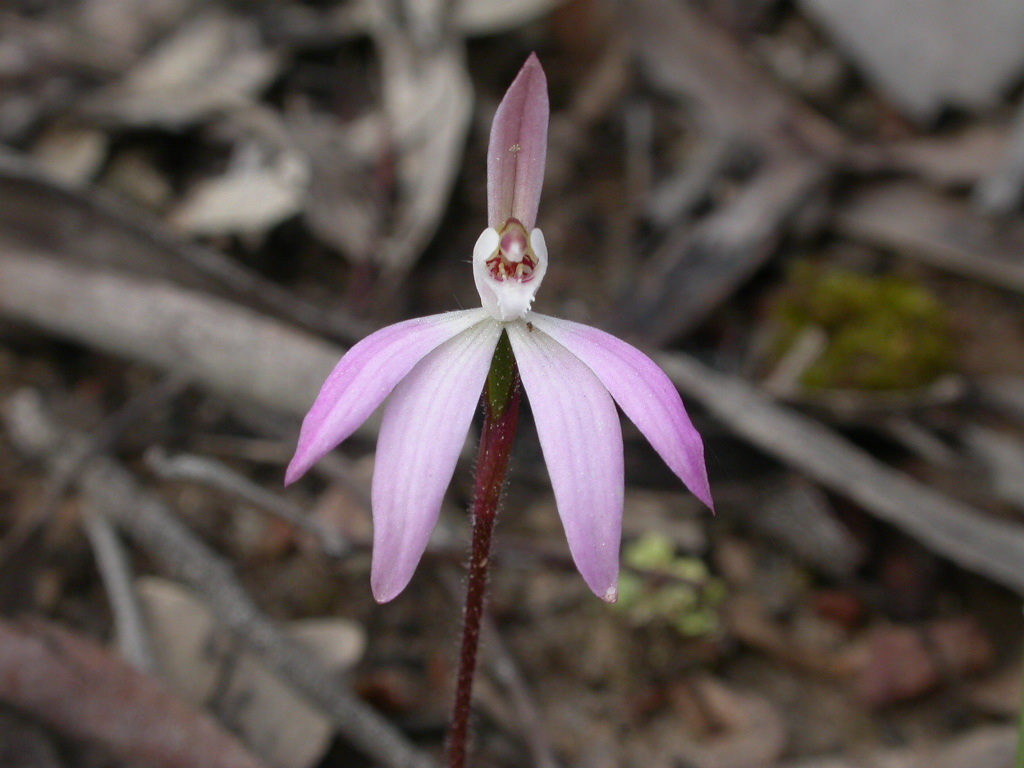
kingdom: Plantae
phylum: Tracheophyta
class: Liliopsida
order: Asparagales
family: Orchidaceae
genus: Caladenia
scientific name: Caladenia fuscata
